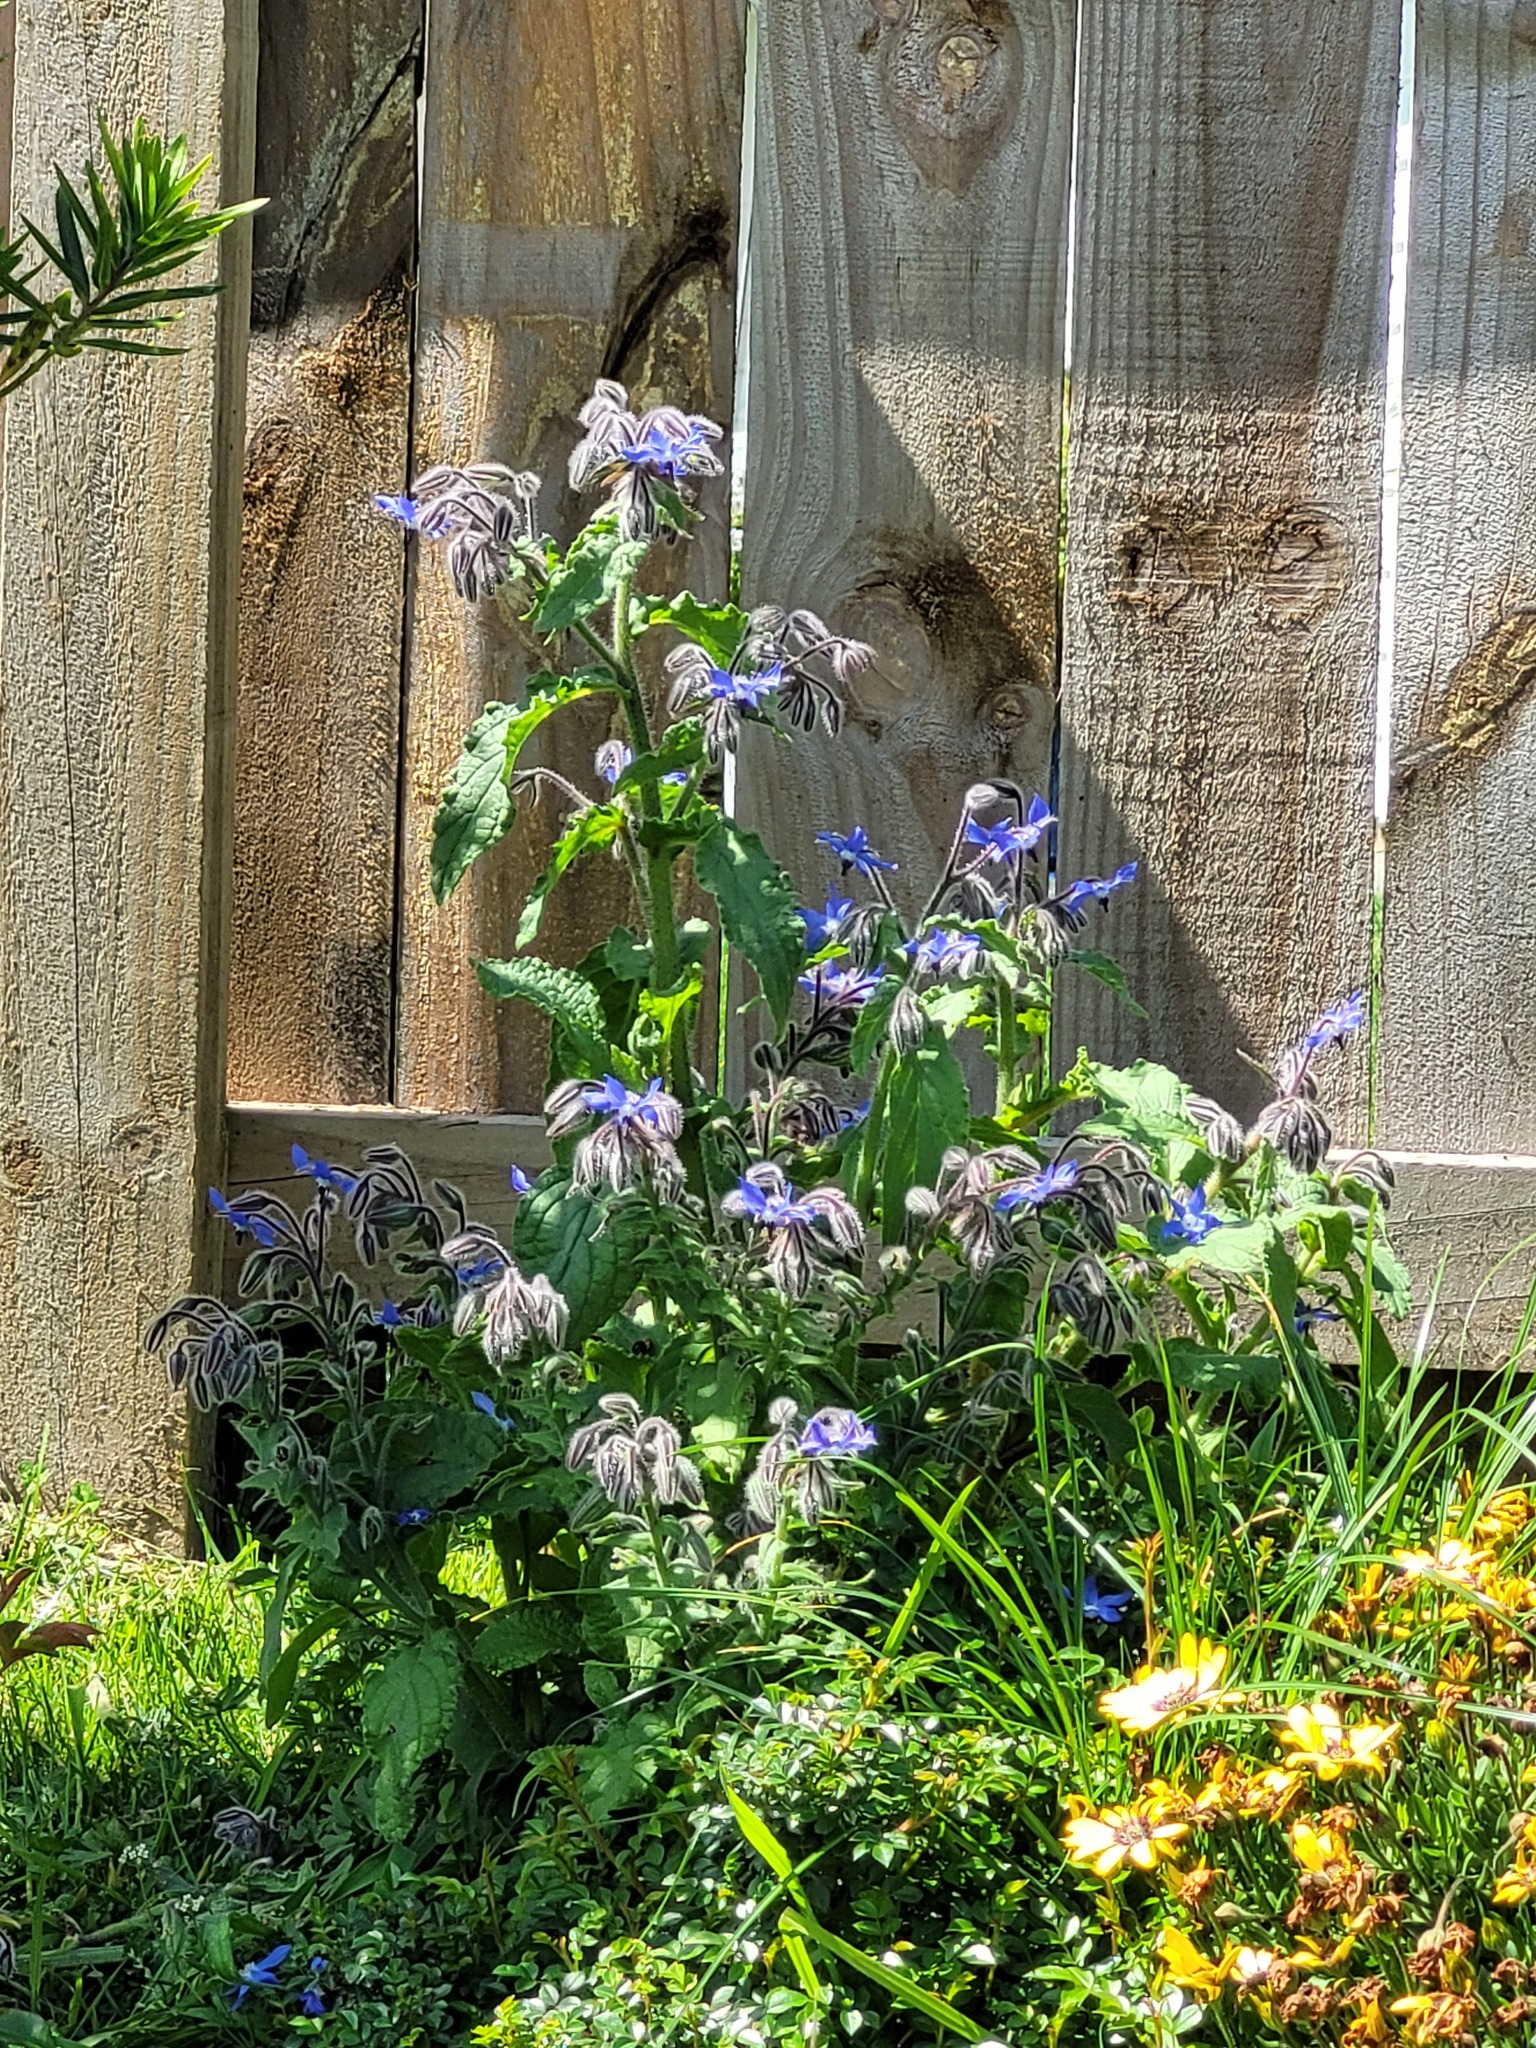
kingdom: Plantae
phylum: Tracheophyta
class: Magnoliopsida
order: Boraginales
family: Boraginaceae
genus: Borago
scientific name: Borago officinalis
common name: Borage
